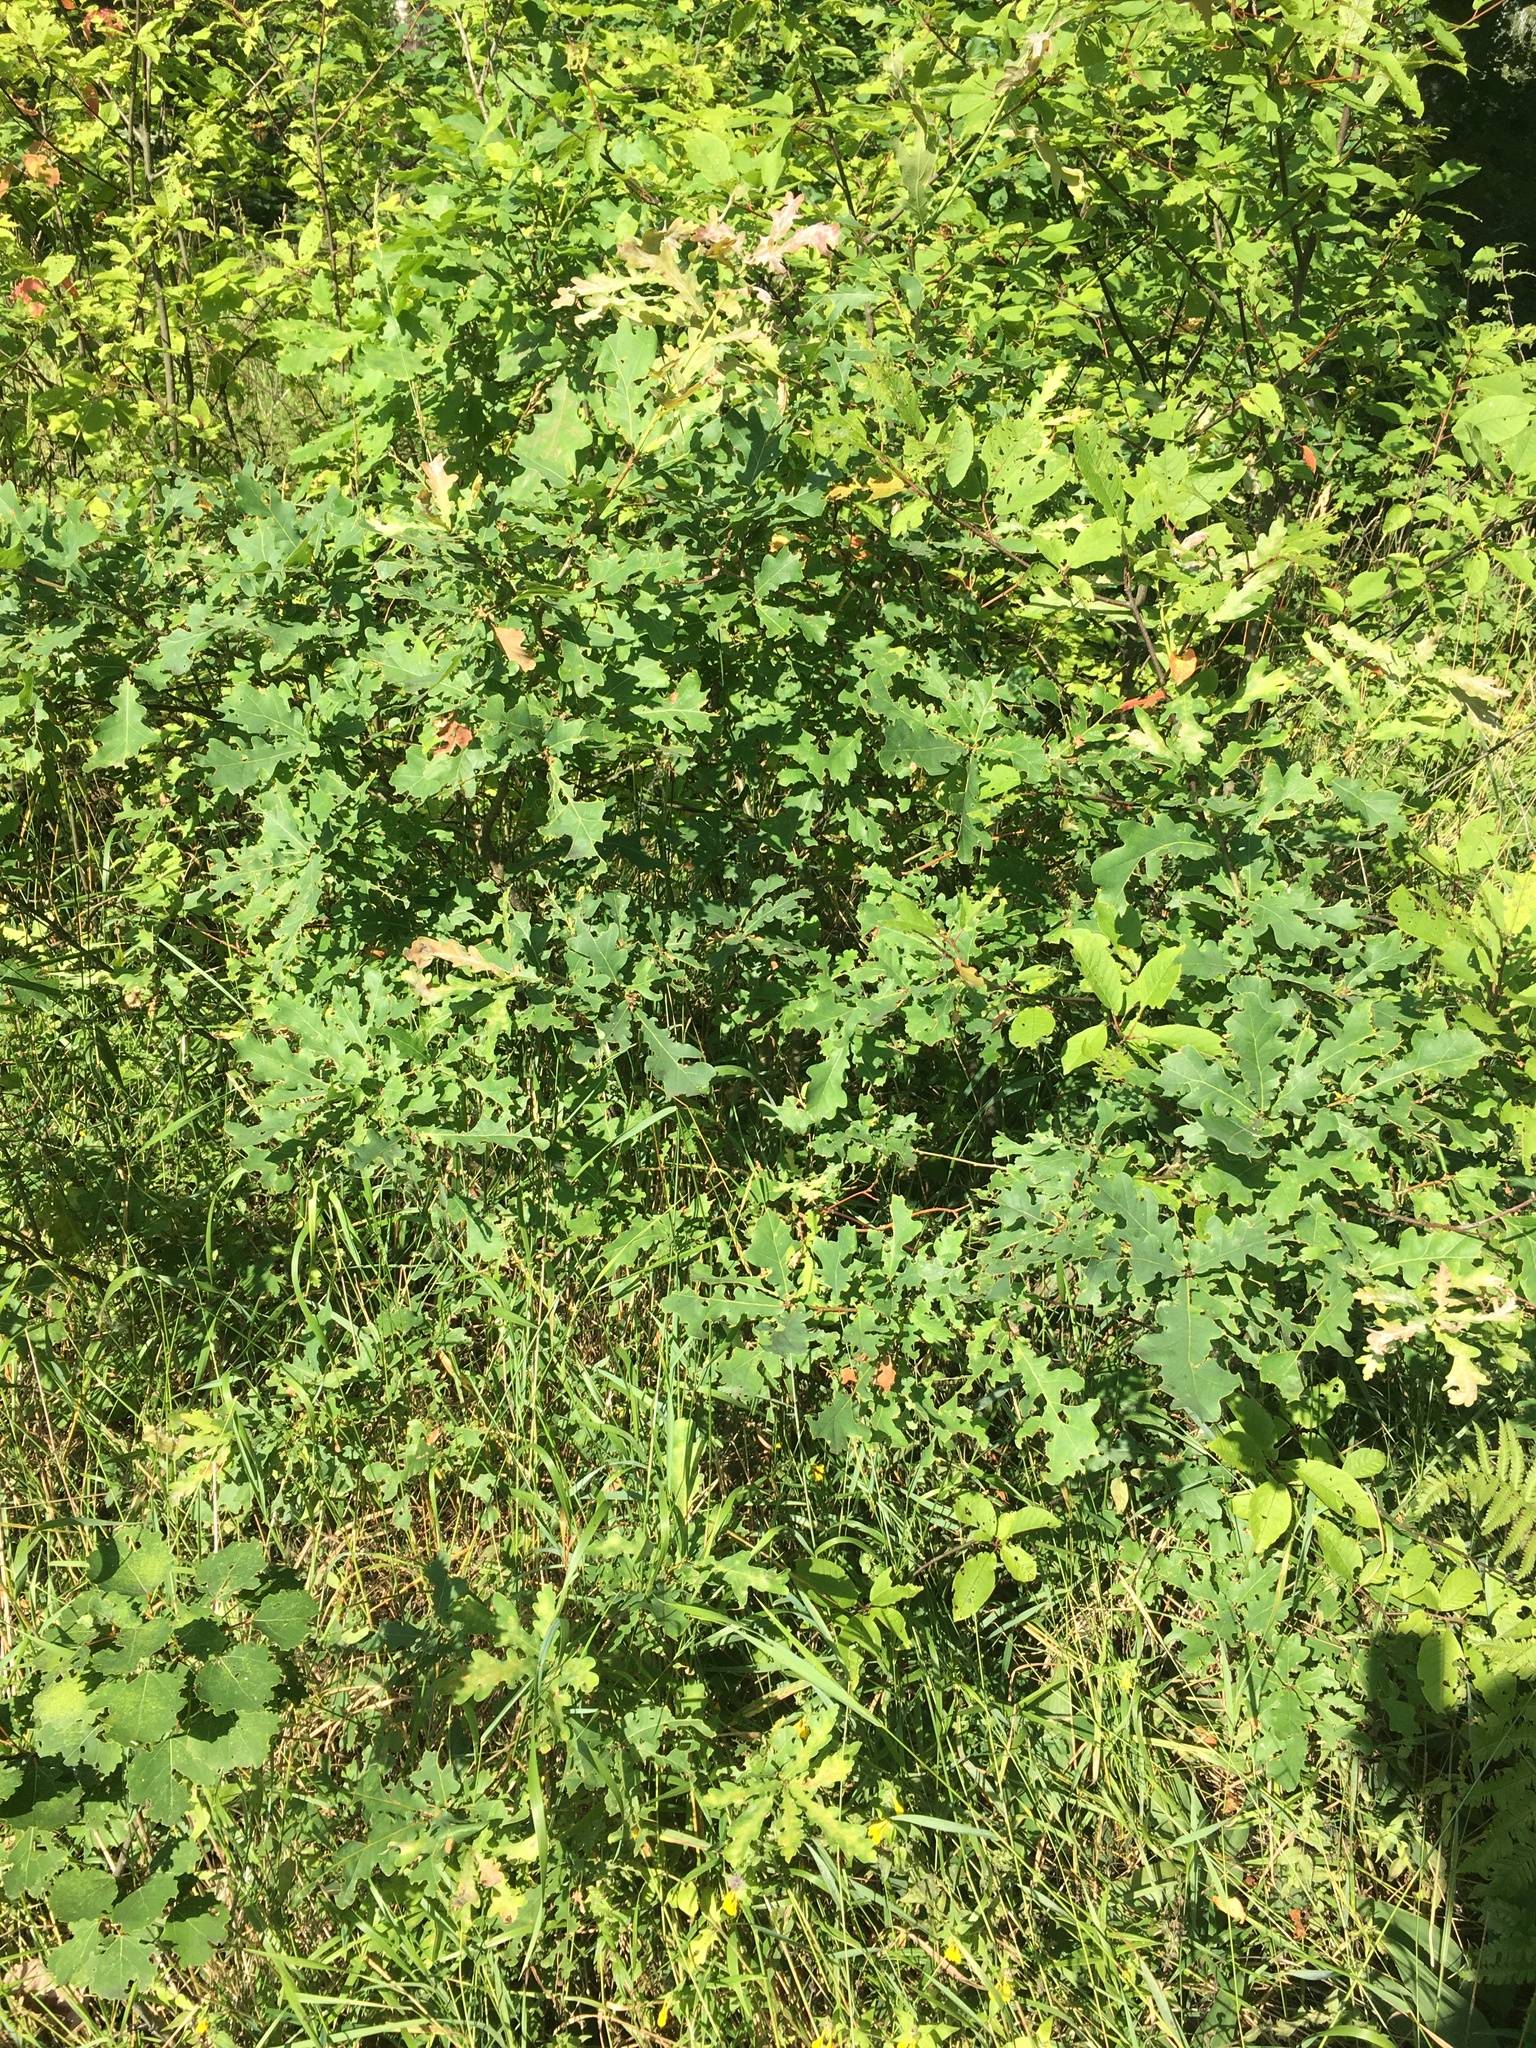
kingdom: Plantae
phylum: Tracheophyta
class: Magnoliopsida
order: Fagales
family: Fagaceae
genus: Quercus
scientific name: Quercus robur
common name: Pedunculate oak
